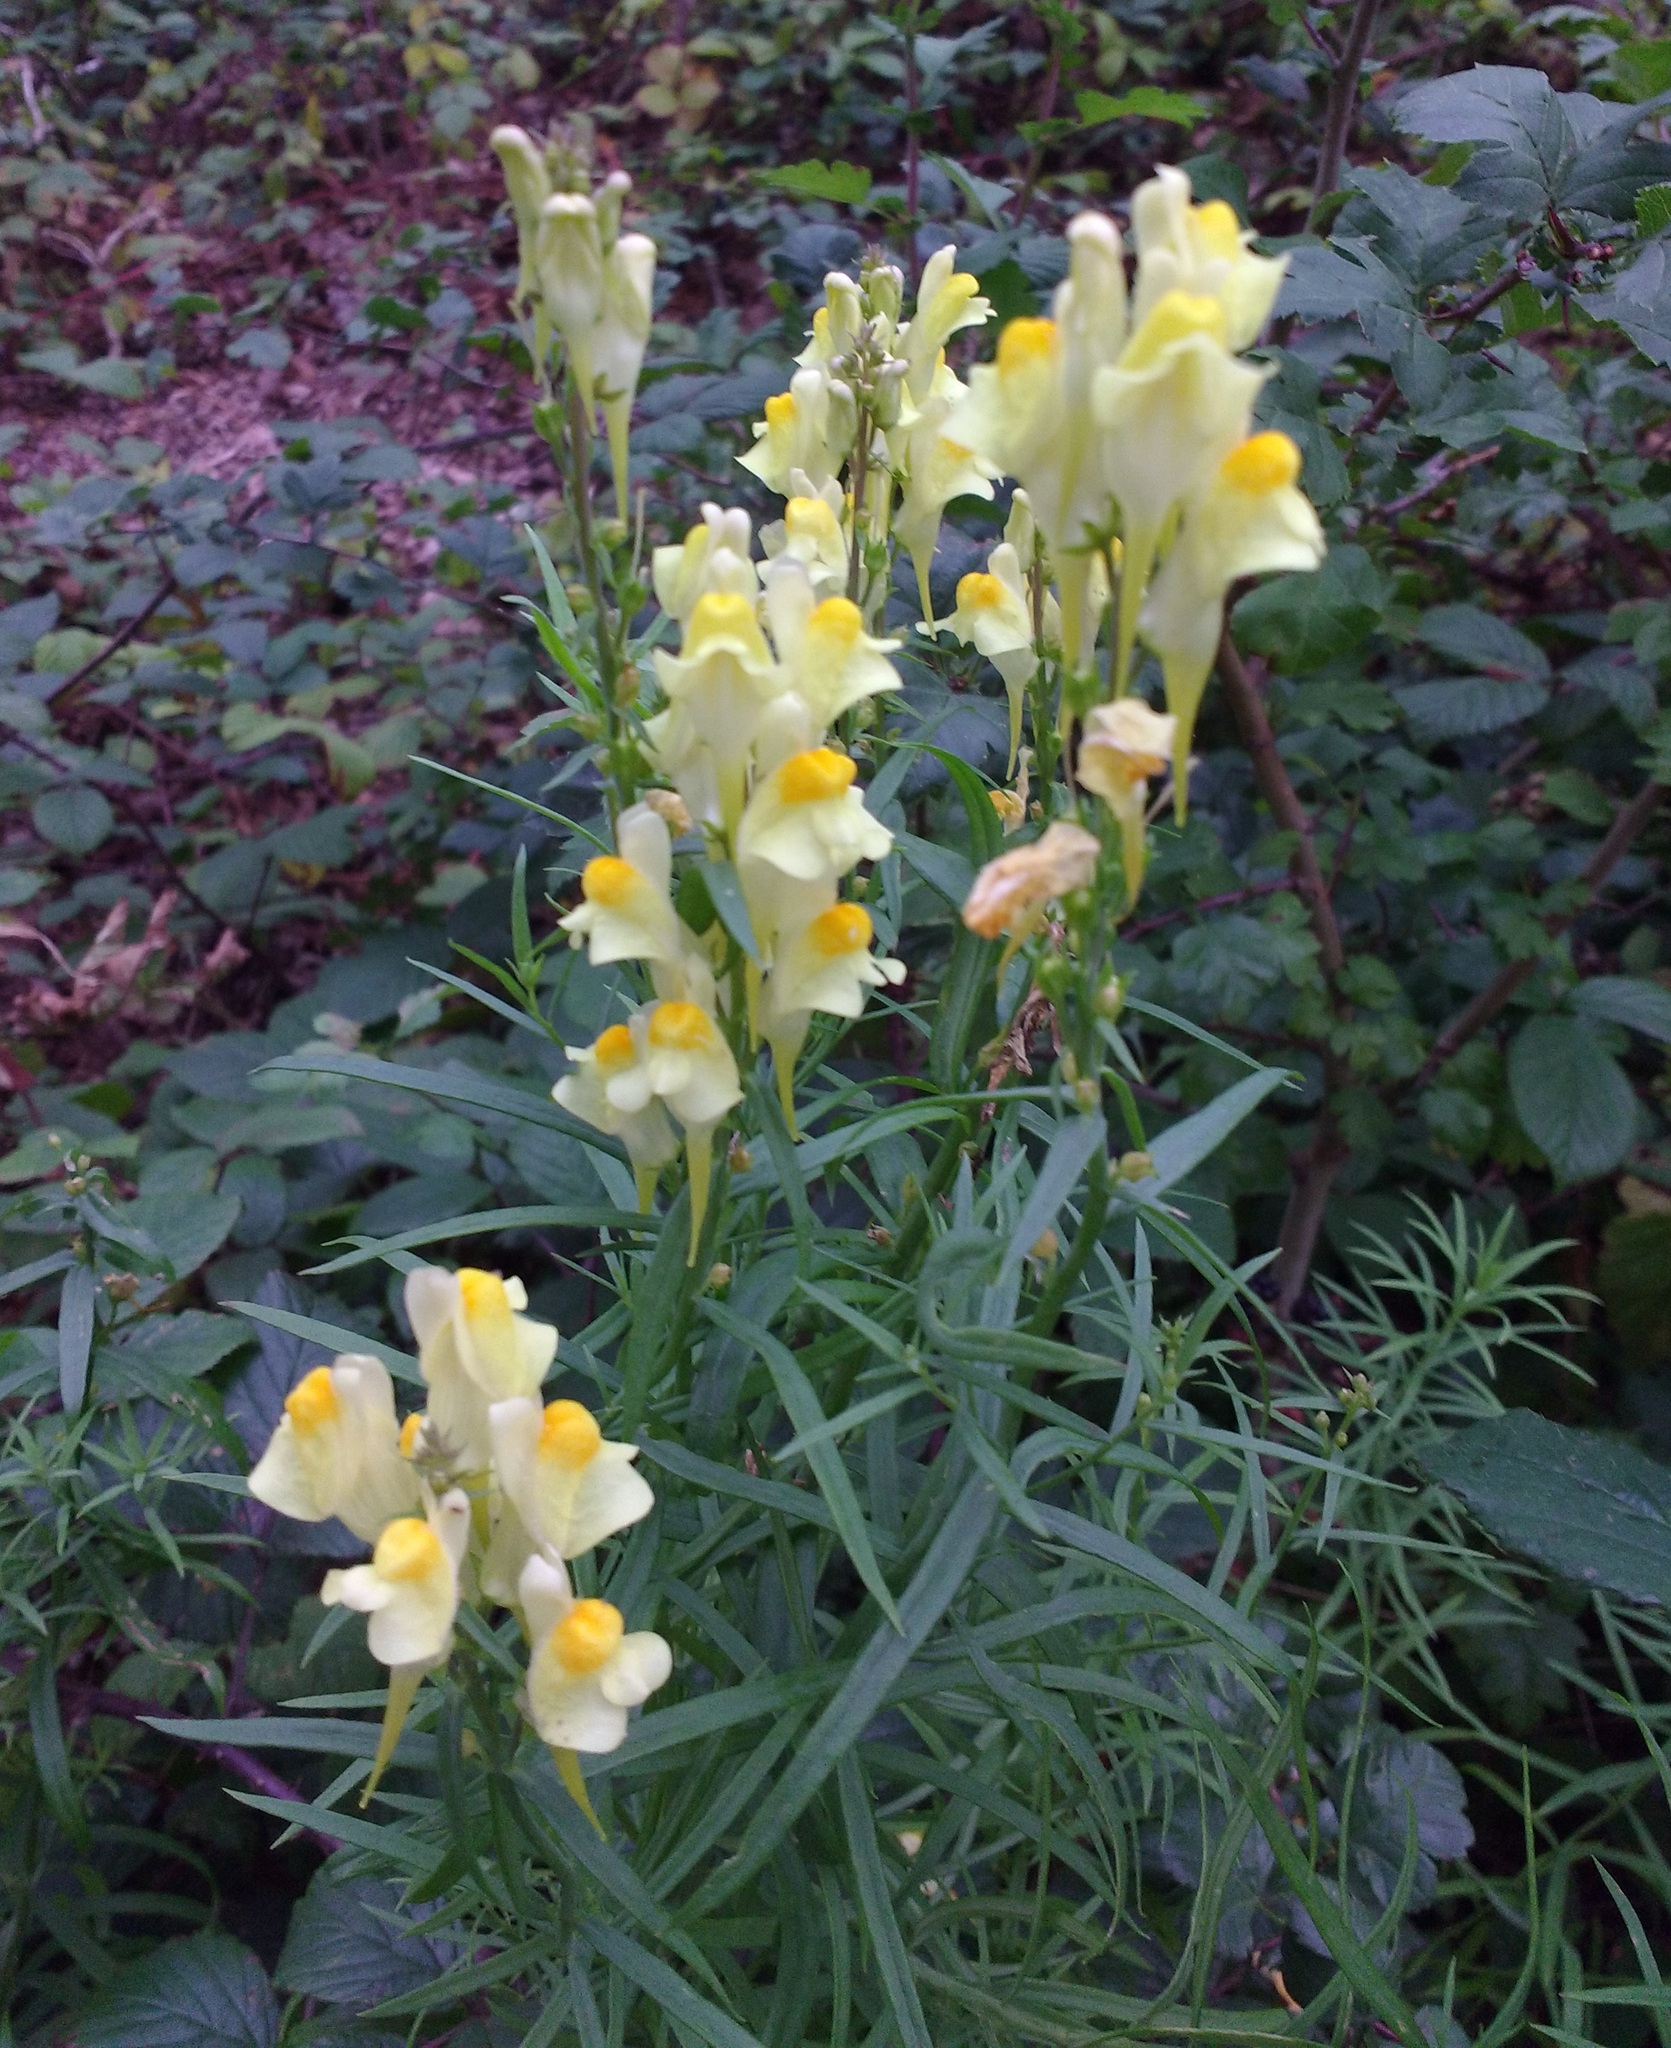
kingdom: Plantae
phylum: Tracheophyta
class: Magnoliopsida
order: Lamiales
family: Plantaginaceae
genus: Linaria
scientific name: Linaria vulgaris
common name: Butter and eggs
